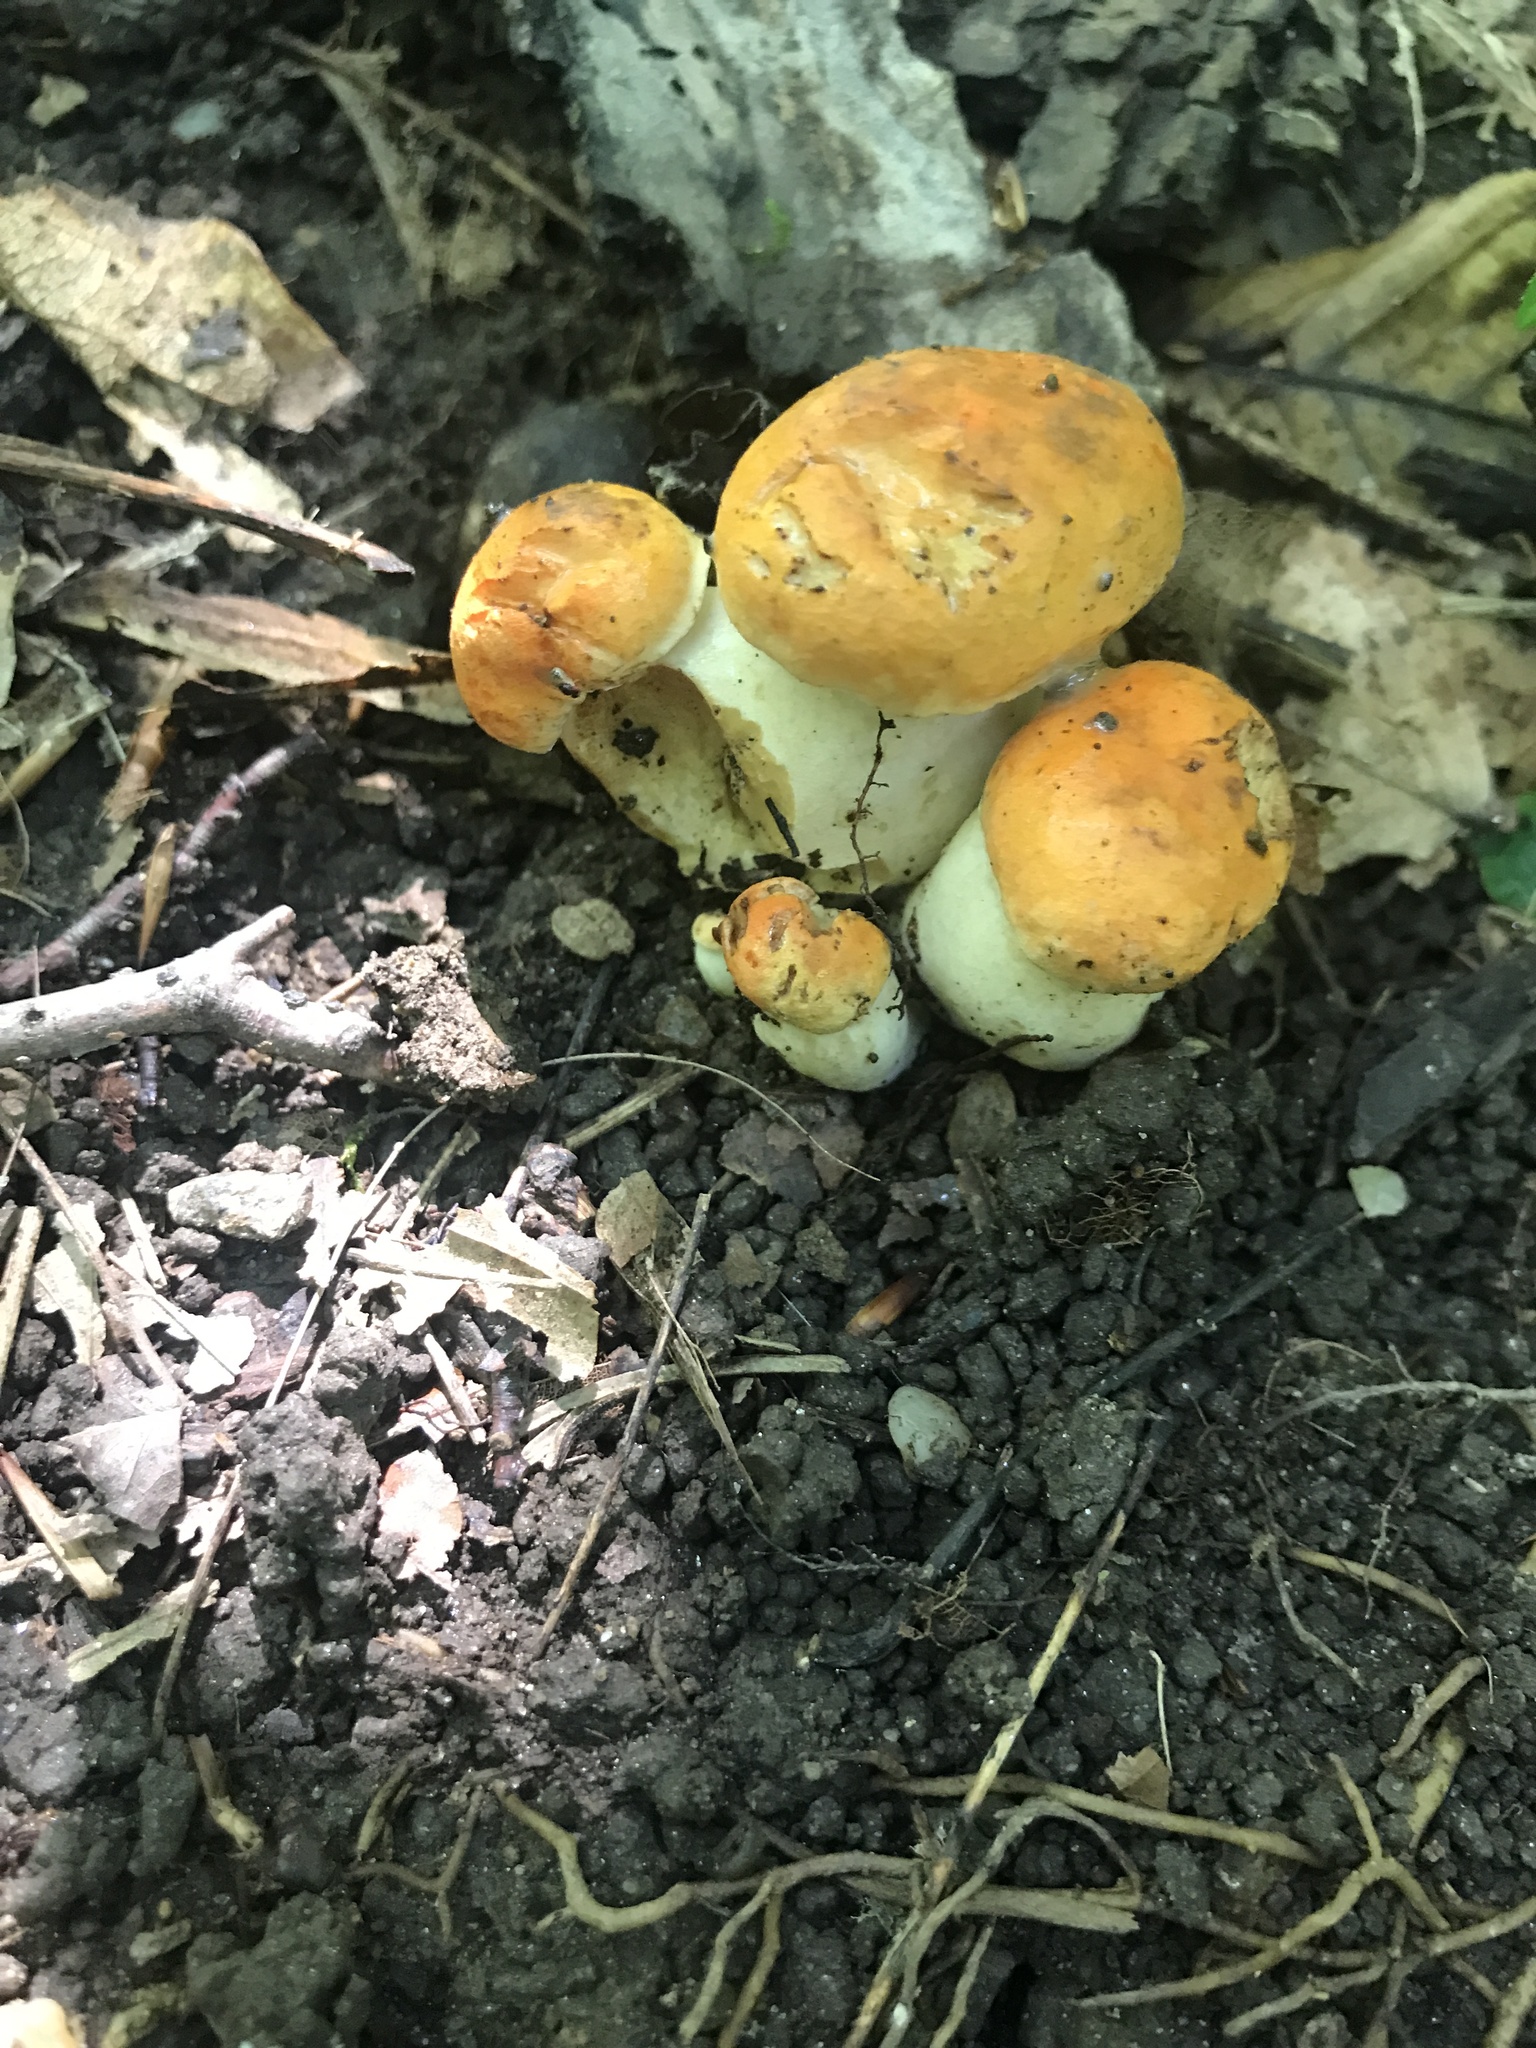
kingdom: Fungi
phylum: Basidiomycota
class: Agaricomycetes
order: Boletales
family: Boletaceae
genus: Tylopilus
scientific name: Tylopilus balloui
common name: Burnt-orange bolete
